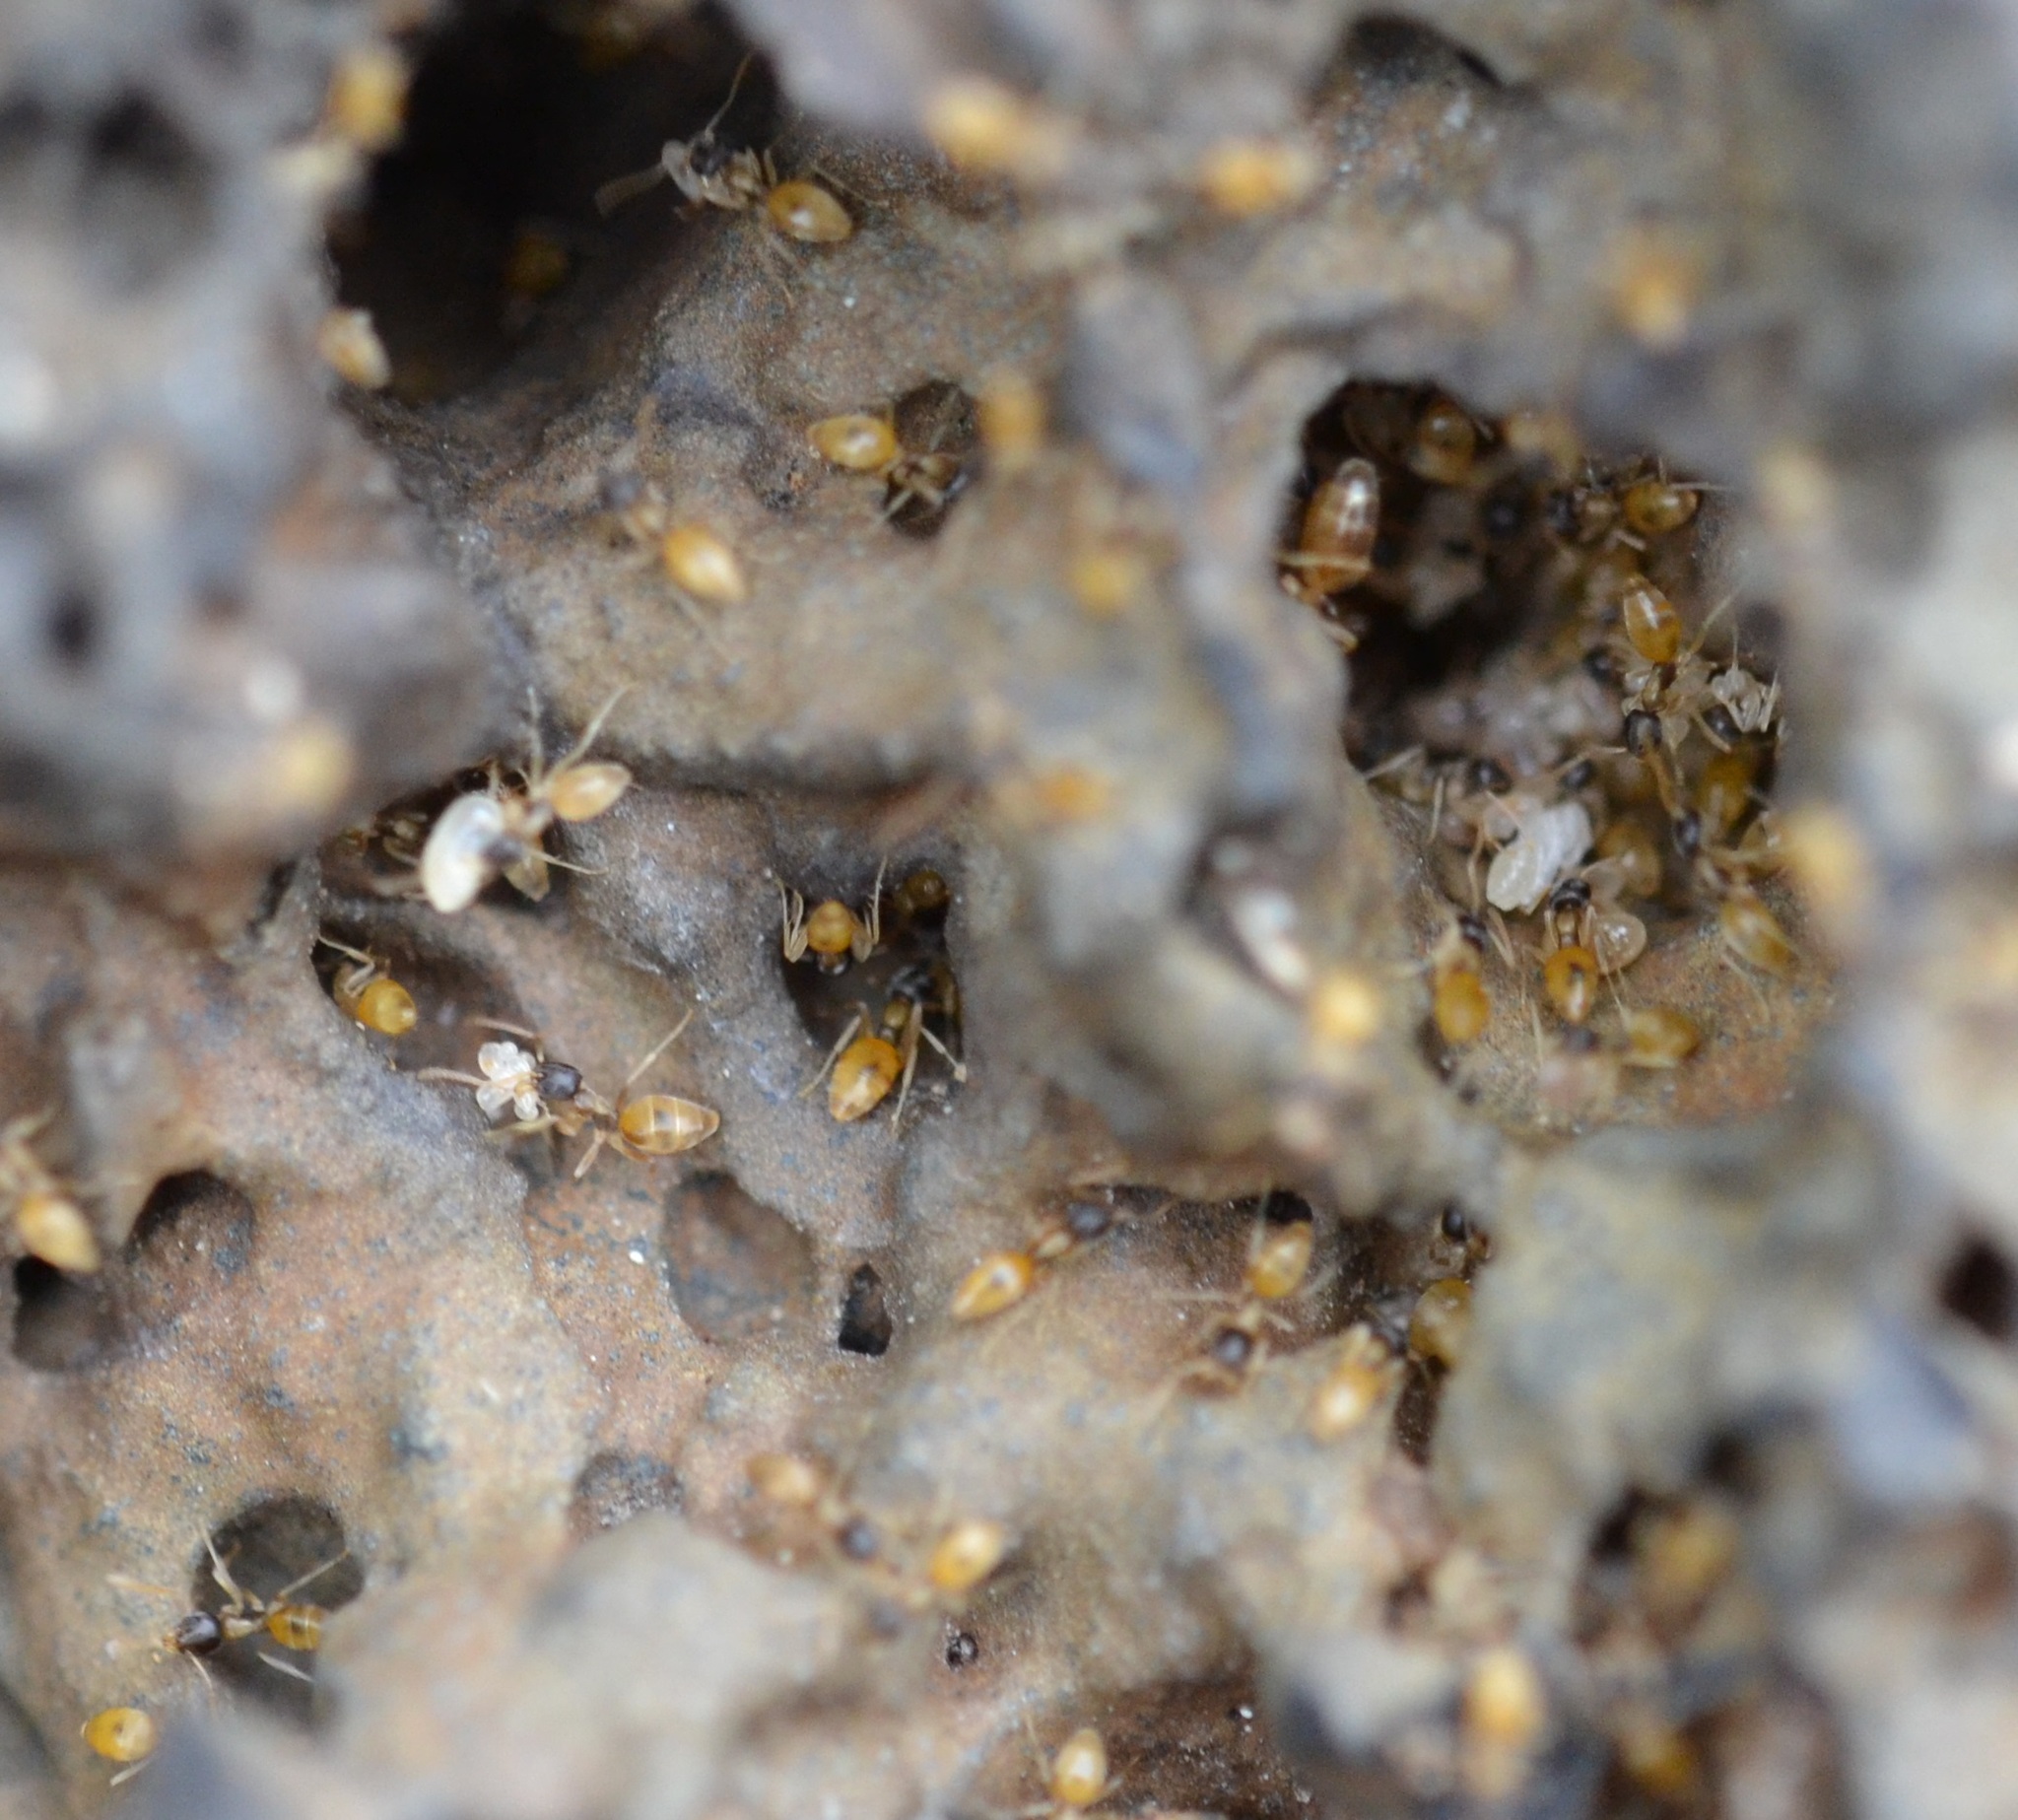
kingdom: Animalia
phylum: Arthropoda
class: Insecta
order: Hymenoptera
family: Formicidae
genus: Tapinoma
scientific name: Tapinoma melanocephalum
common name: Ghost ant
